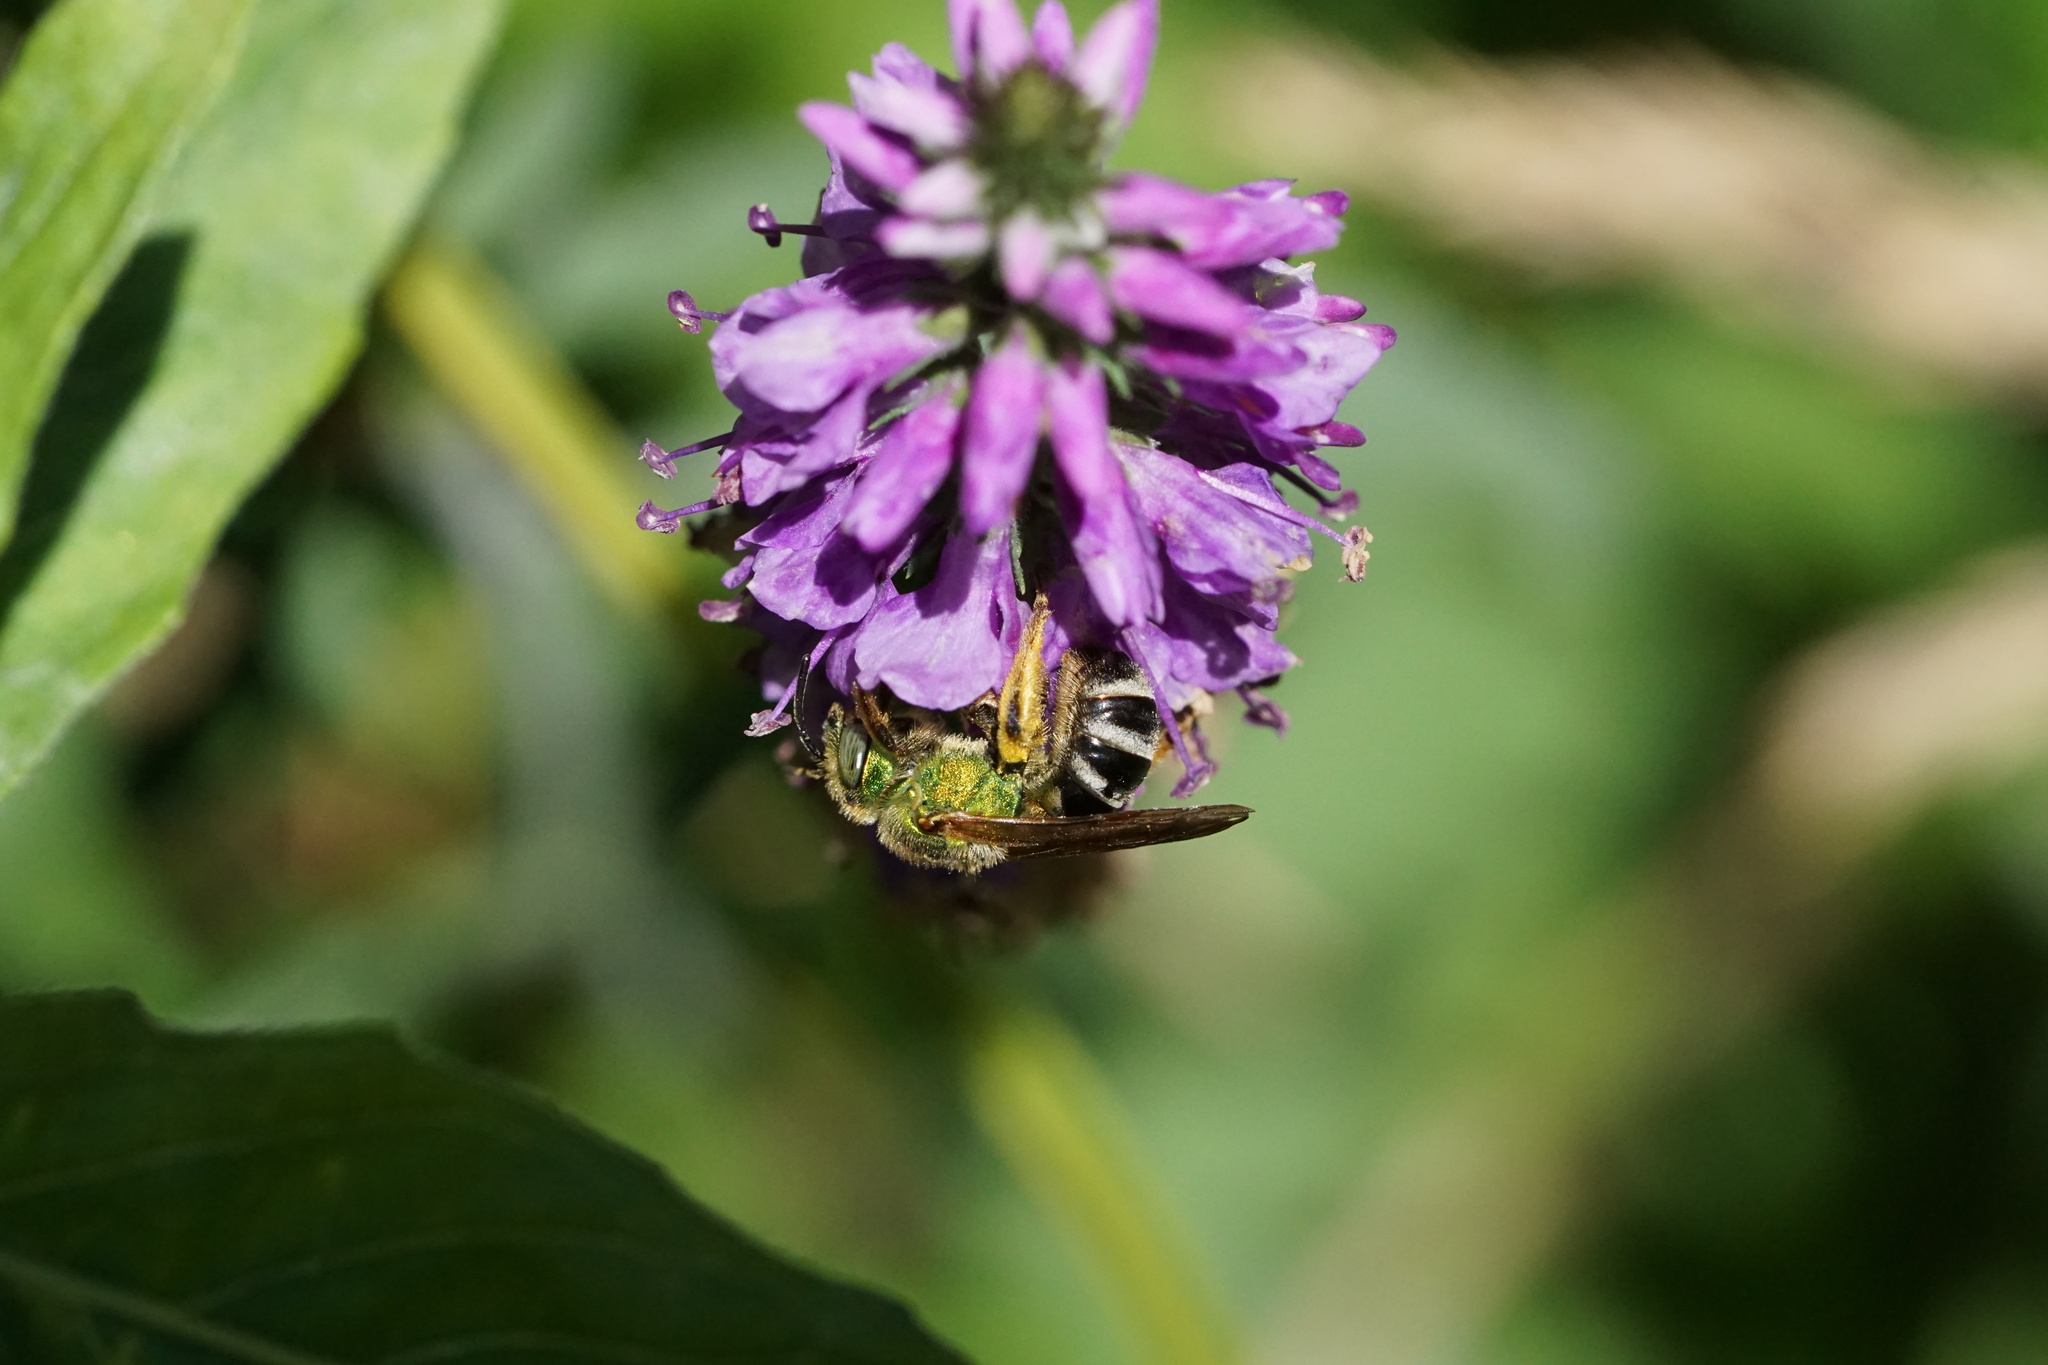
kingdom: Animalia
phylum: Arthropoda
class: Insecta
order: Hymenoptera
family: Halictidae
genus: Agapostemon
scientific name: Agapostemon virescens
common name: Bicolored striped sweat bee
